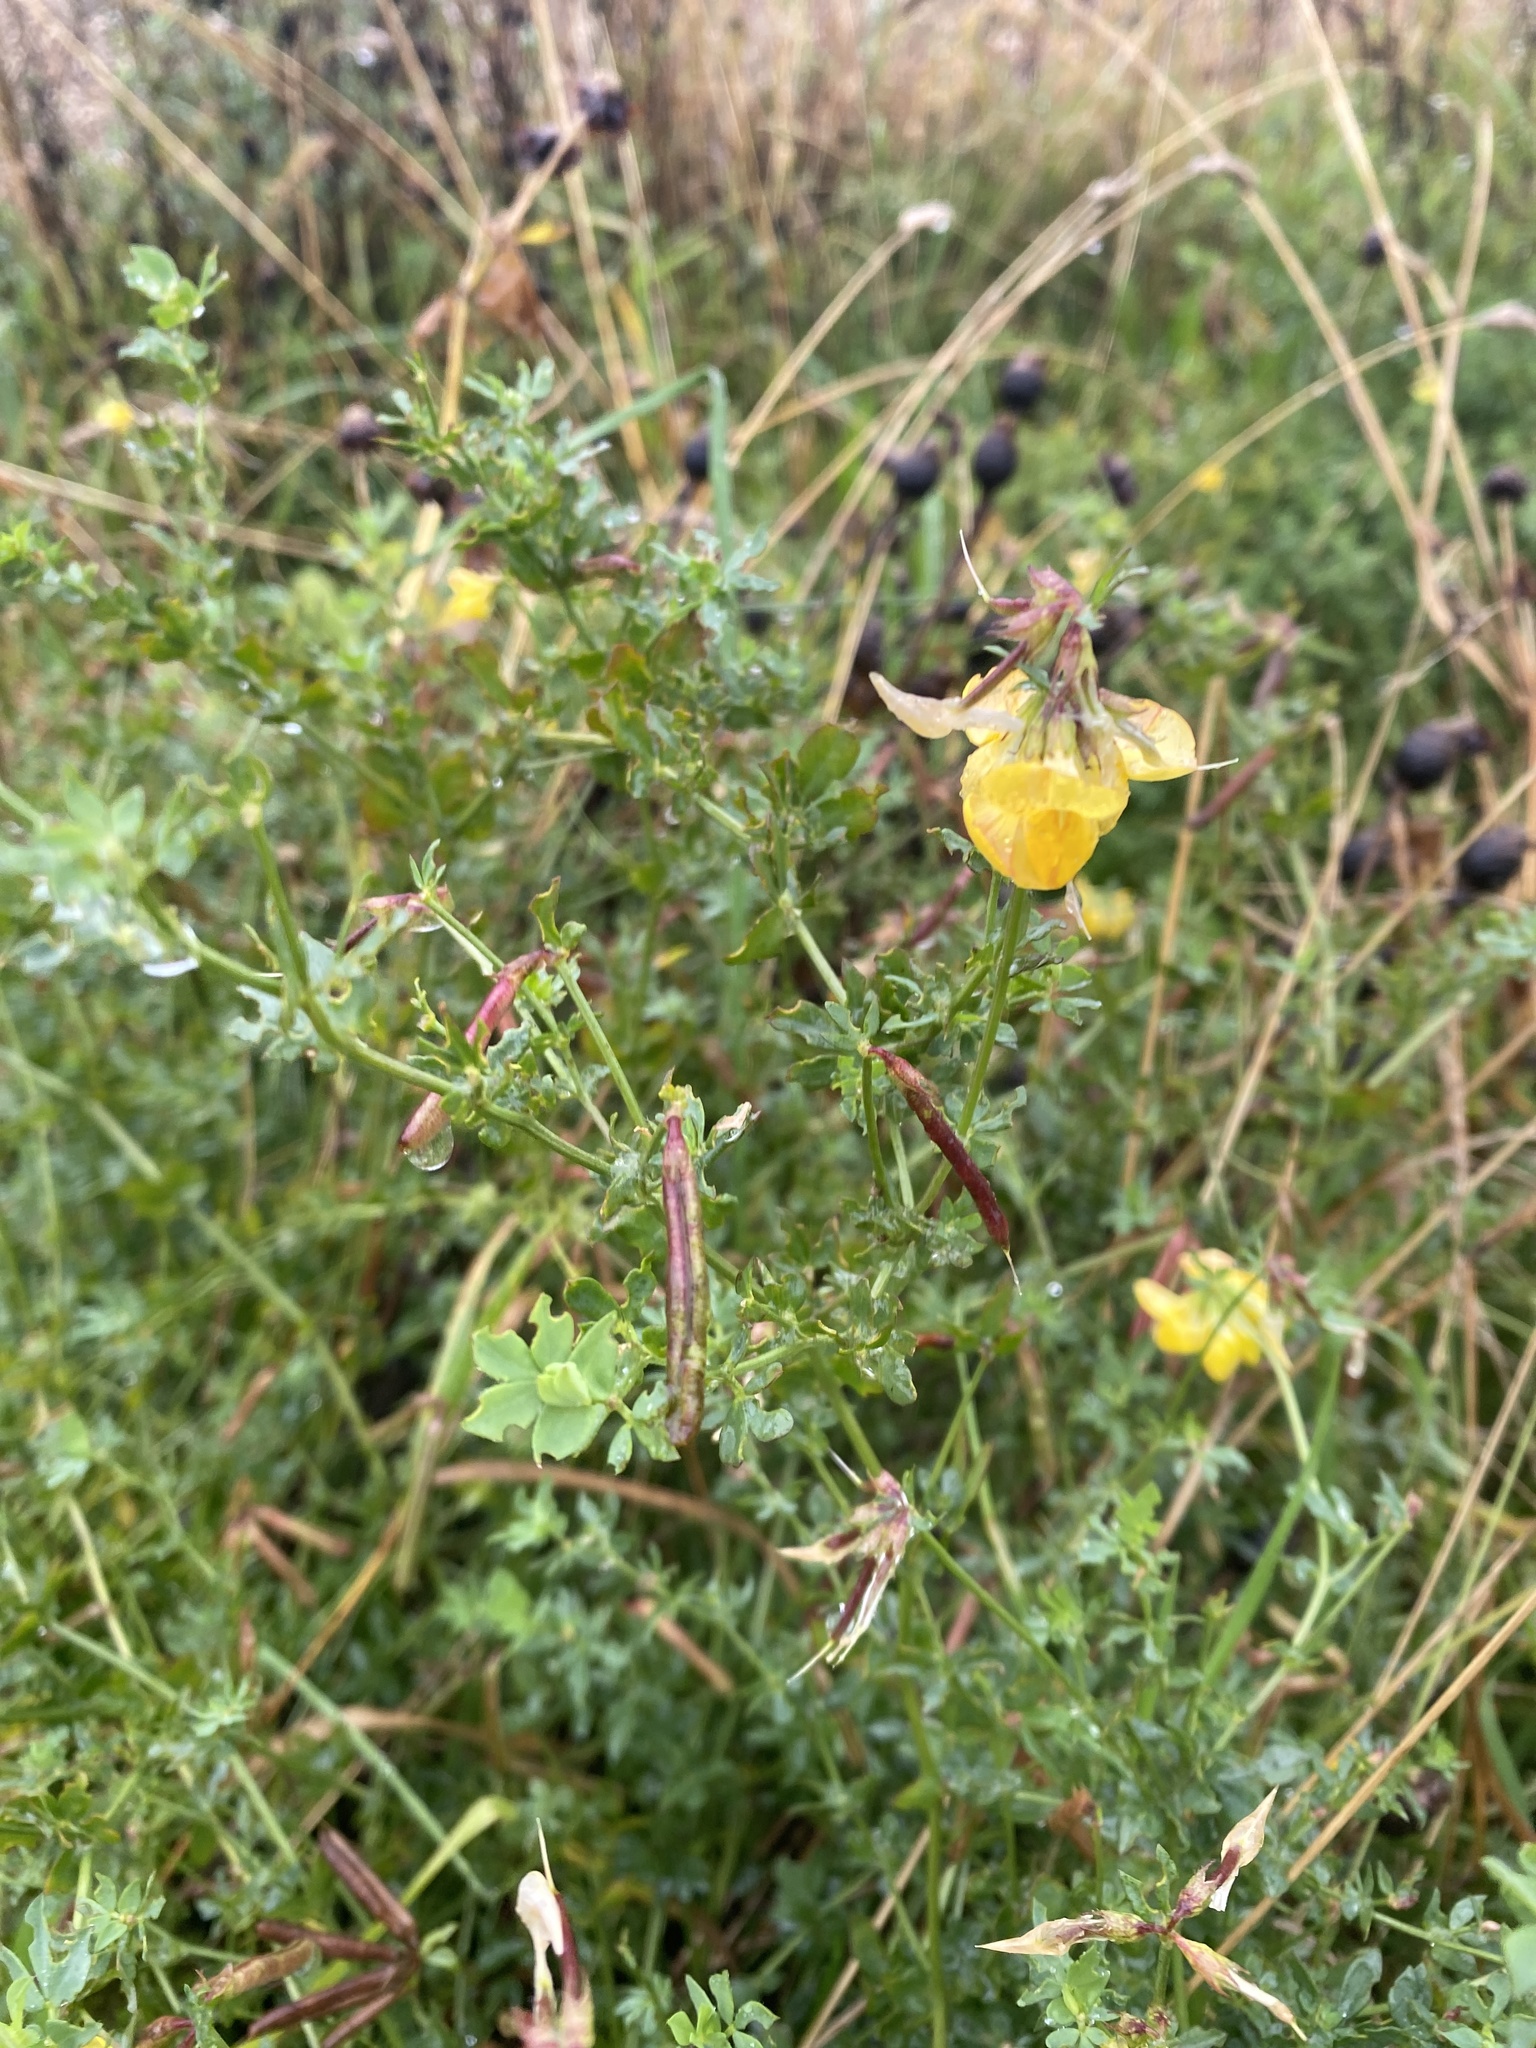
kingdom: Plantae
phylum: Tracheophyta
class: Magnoliopsida
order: Fabales
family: Fabaceae
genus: Lotus
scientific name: Lotus corniculatus
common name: Common bird's-foot-trefoil
